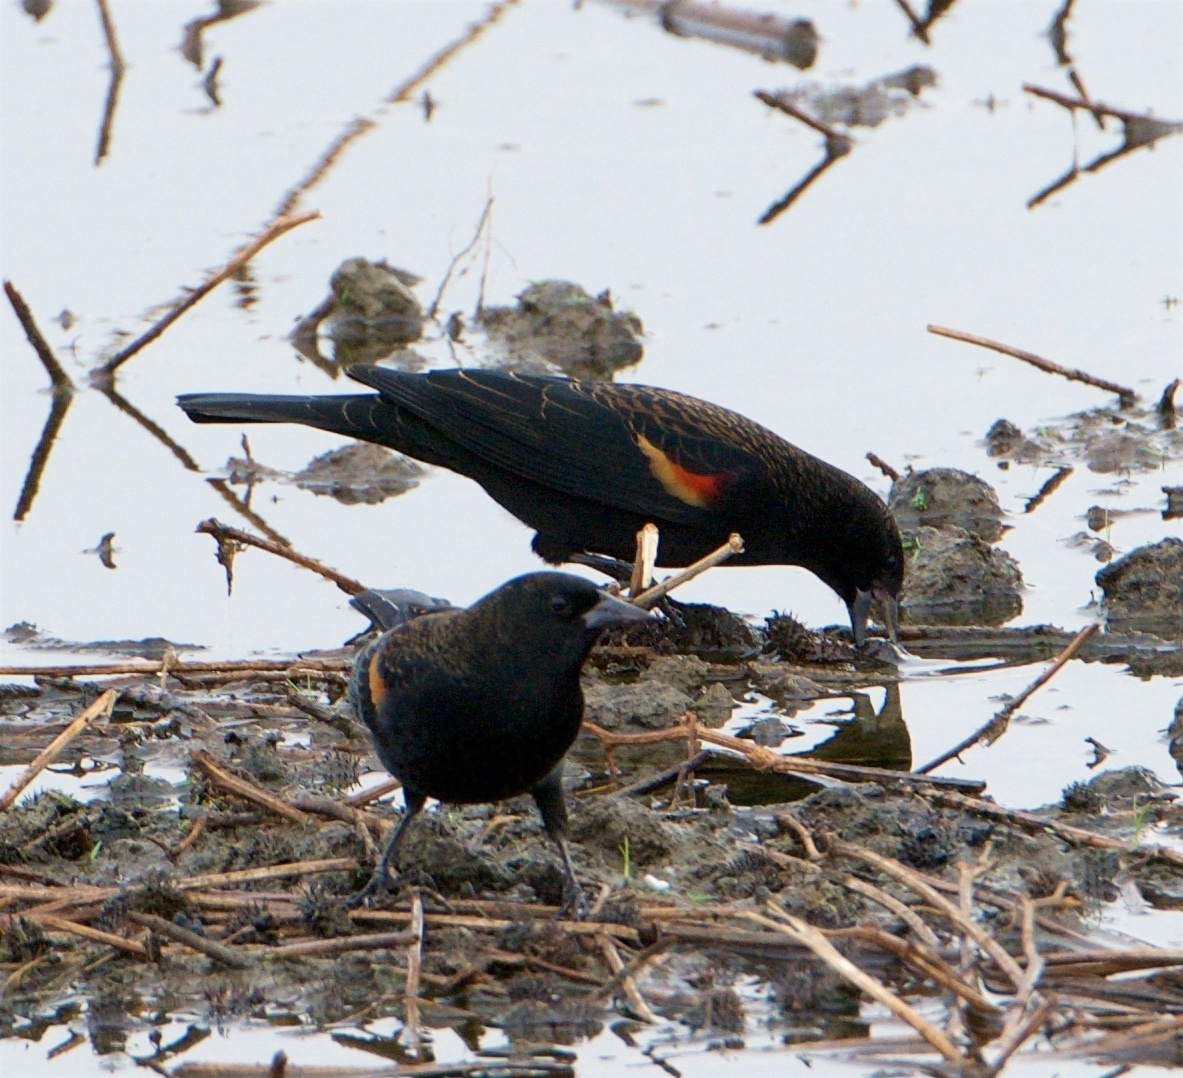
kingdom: Animalia
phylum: Chordata
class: Aves
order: Passeriformes
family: Icteridae
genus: Agelaius
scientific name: Agelaius phoeniceus
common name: Red-winged blackbird
